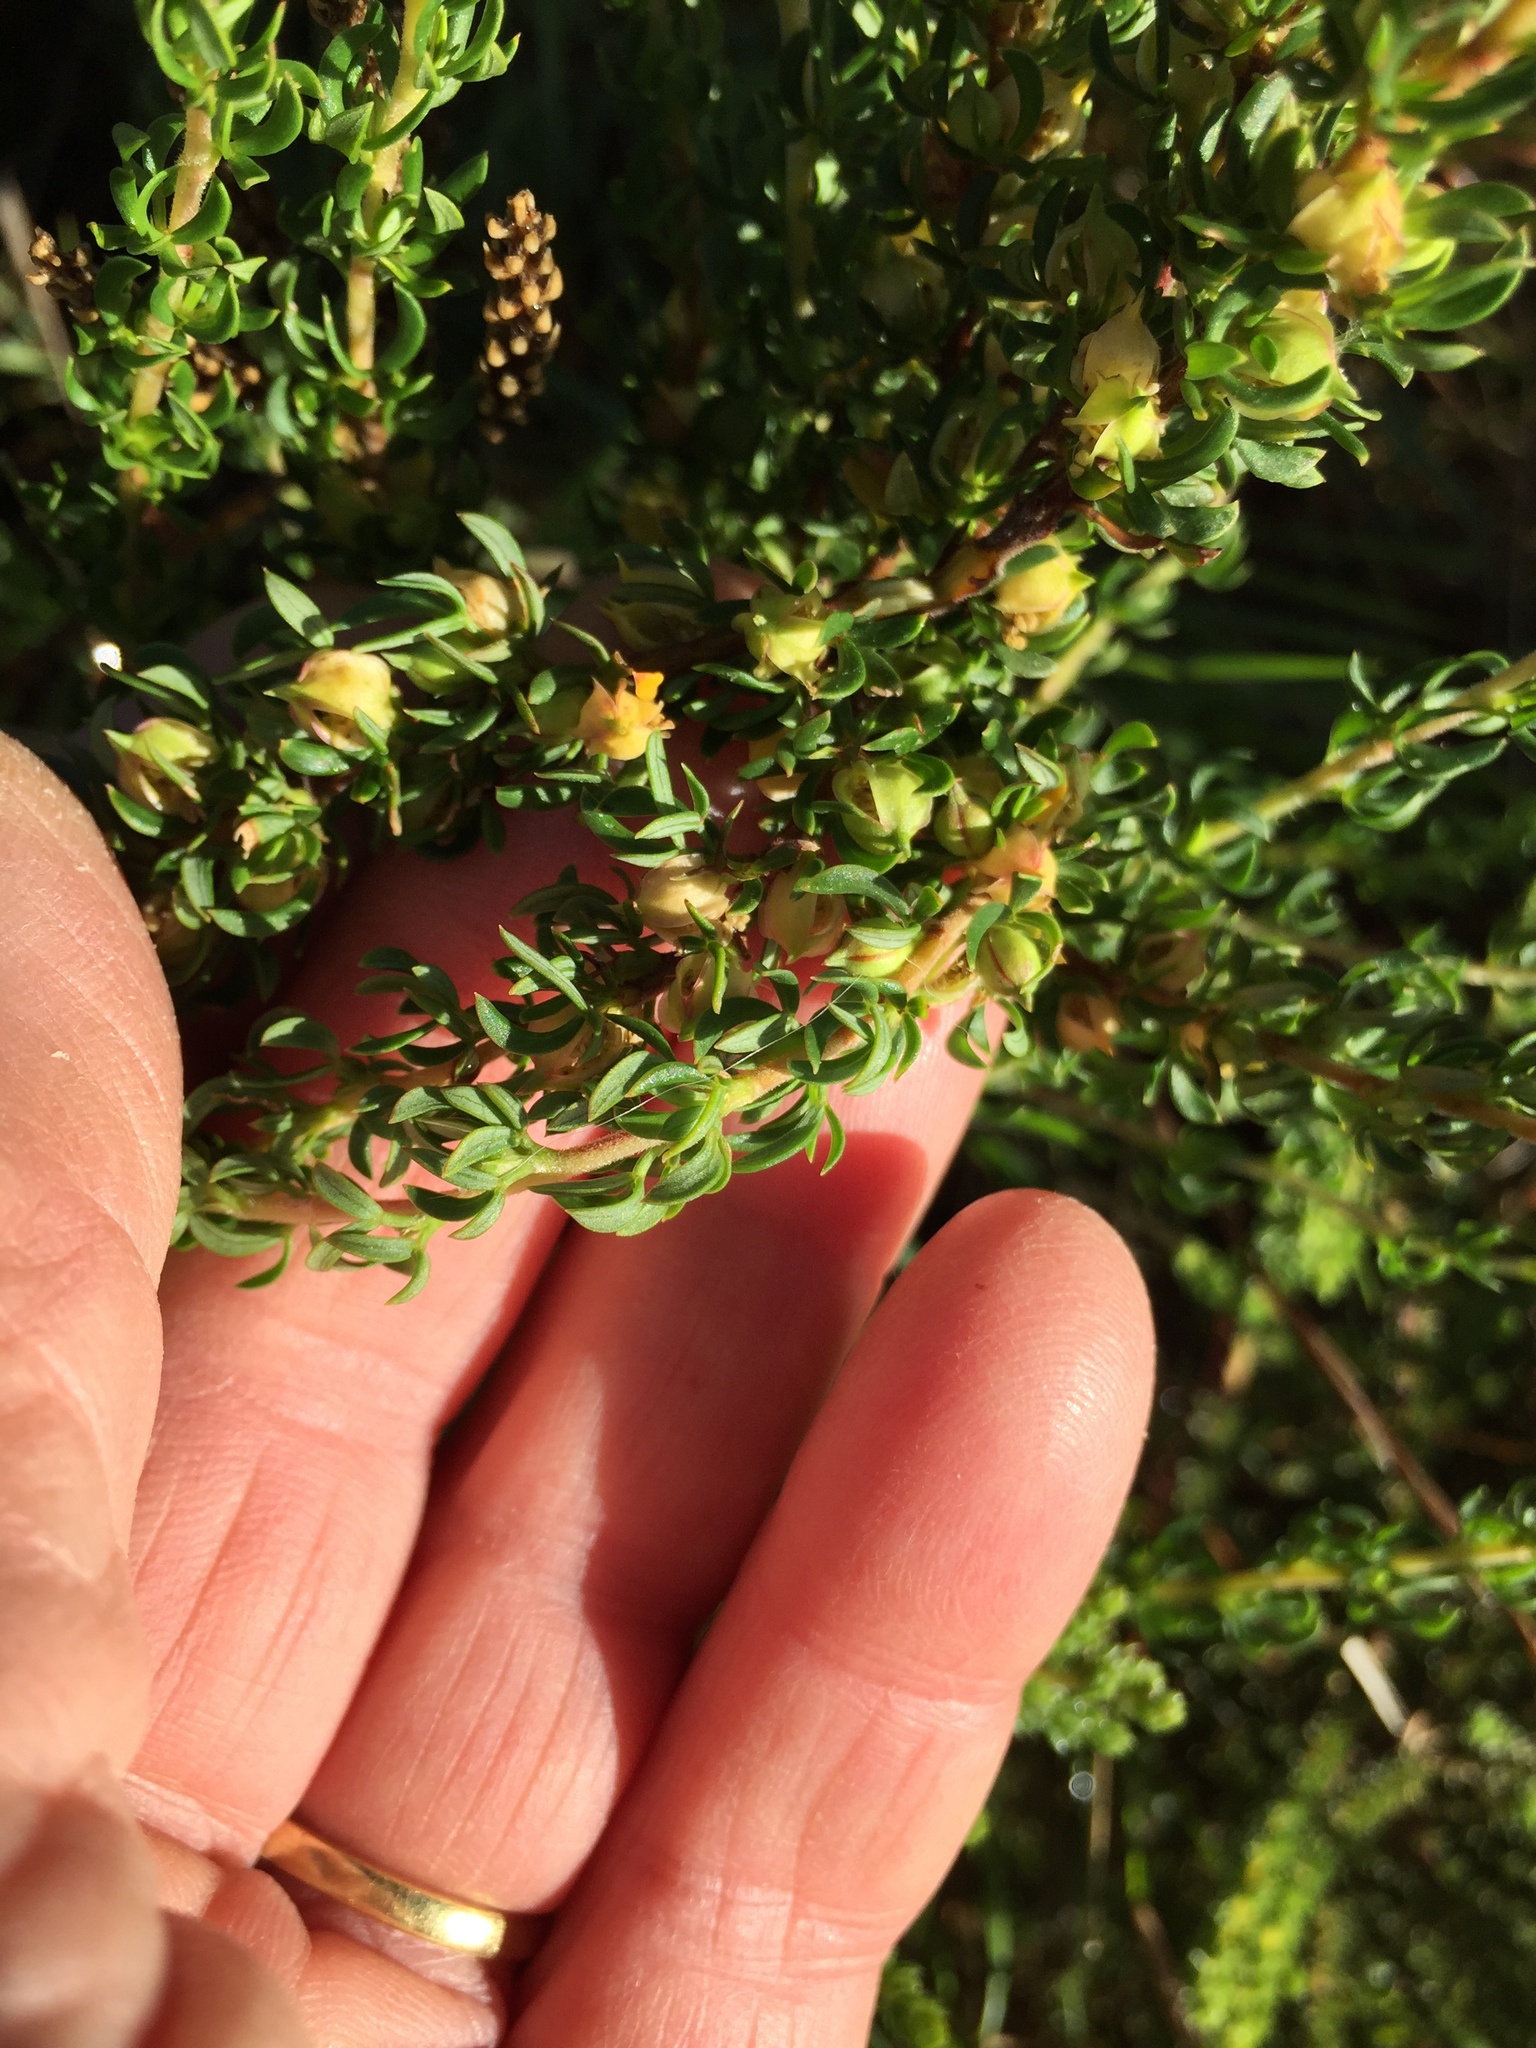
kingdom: Plantae
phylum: Tracheophyta
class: Magnoliopsida
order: Rosales
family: Rosaceae
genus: Cliffortia
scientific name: Cliffortia falcata
